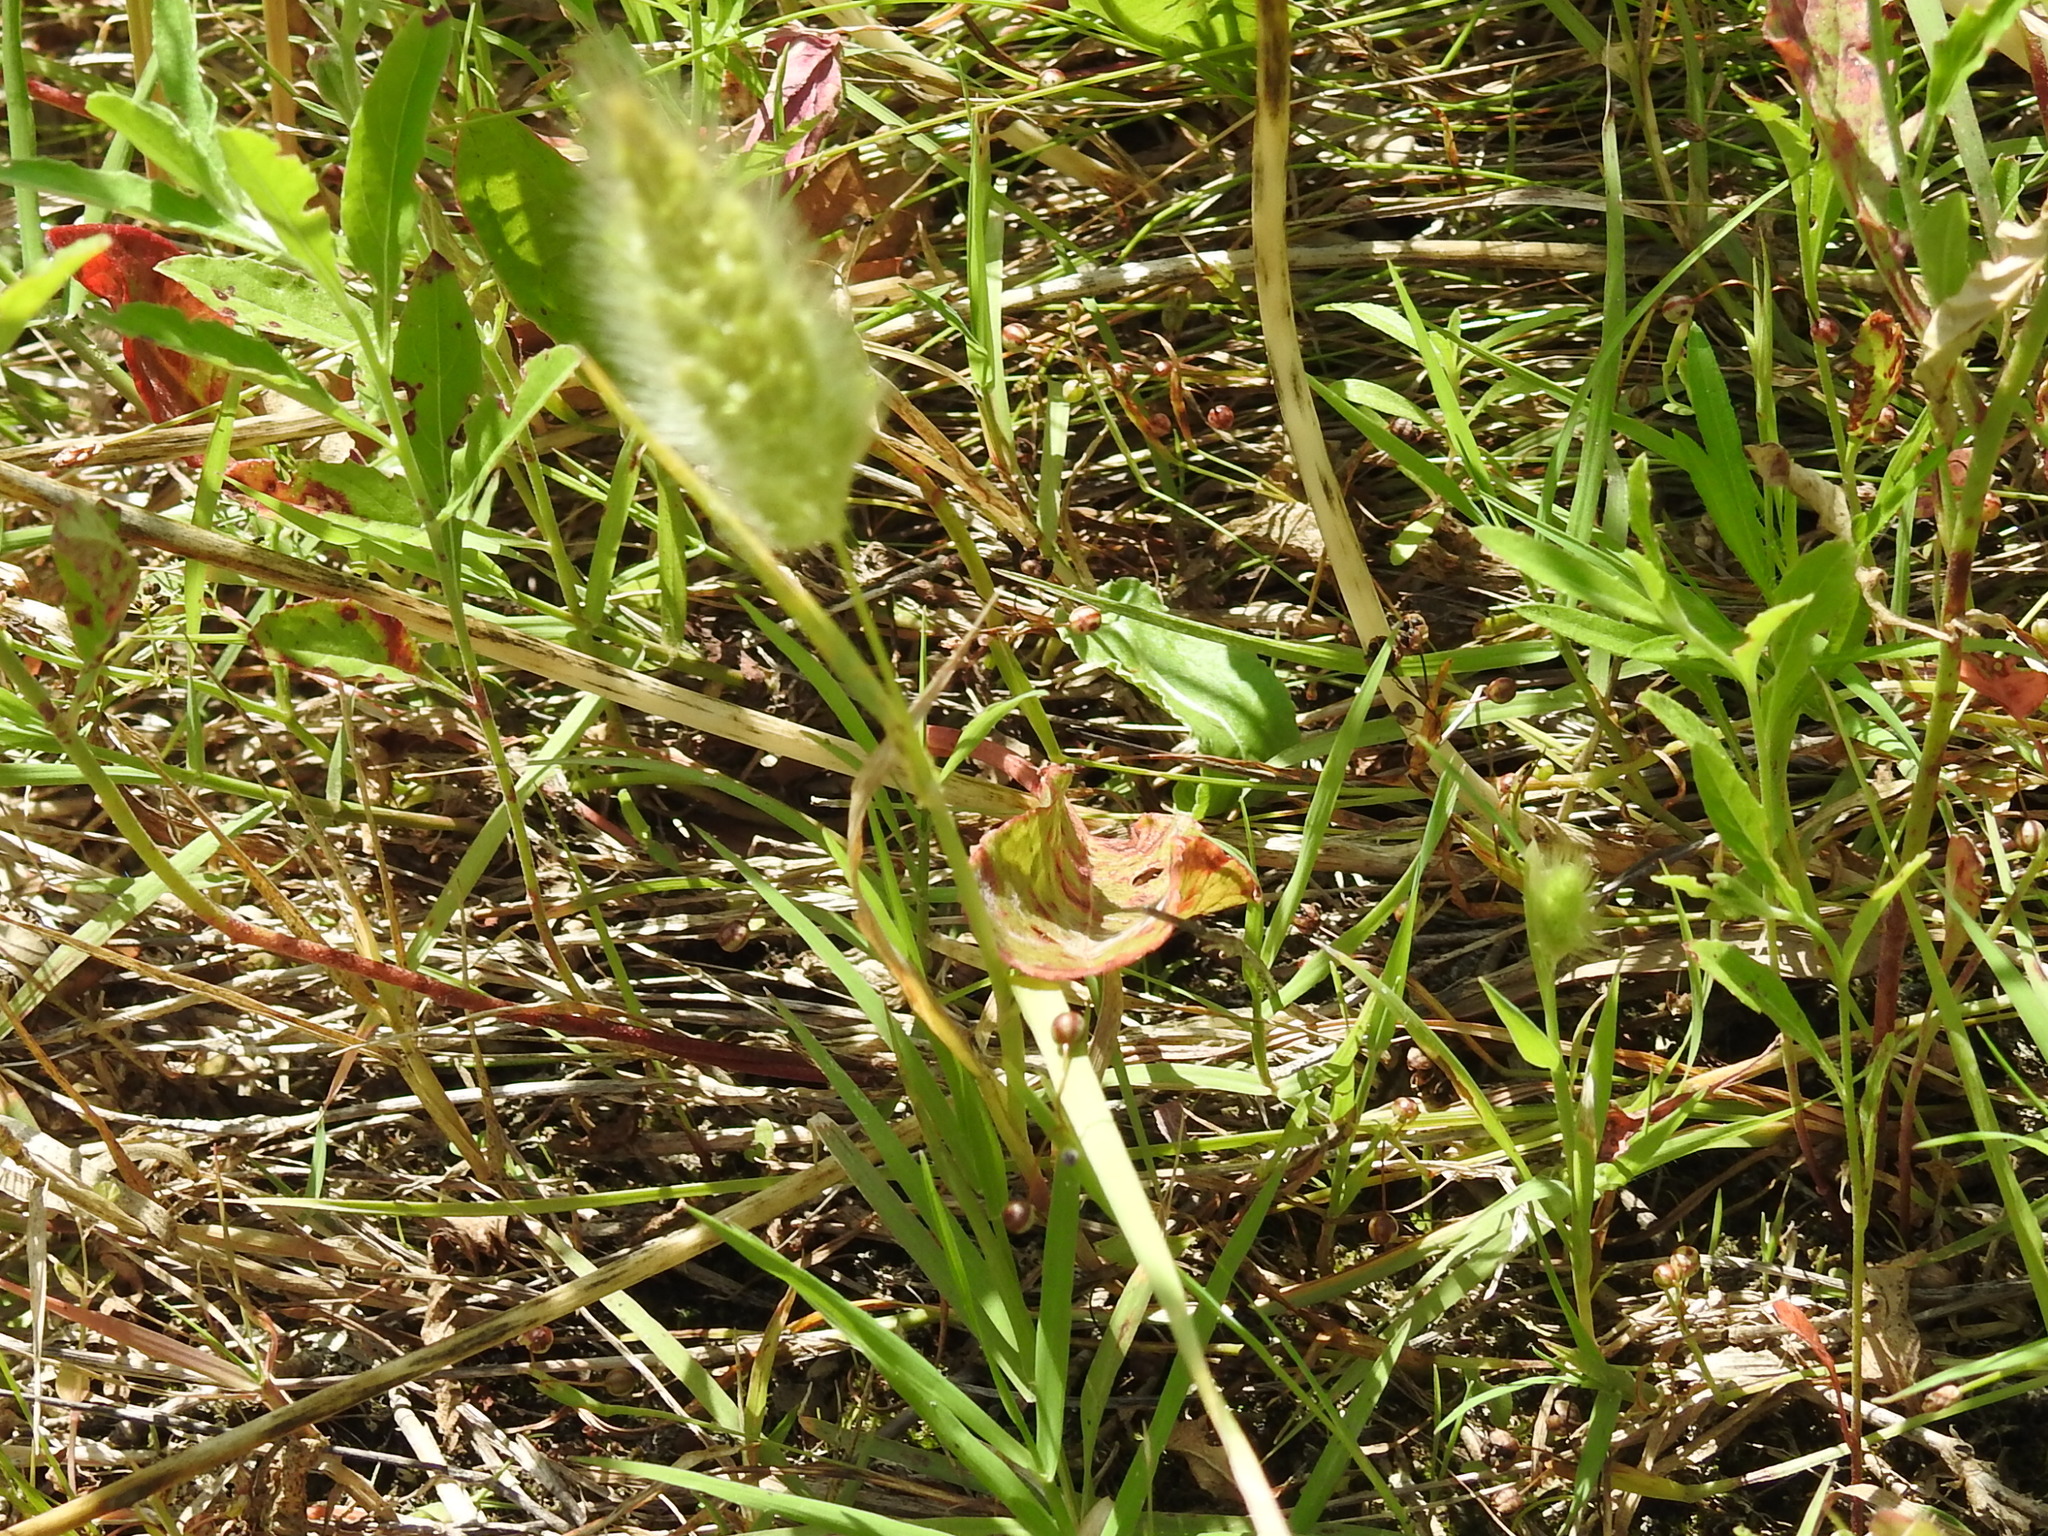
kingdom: Plantae
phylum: Tracheophyta
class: Liliopsida
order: Poales
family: Poaceae
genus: Polypogon
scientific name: Polypogon monspeliensis
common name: Annual rabbitsfoot grass
